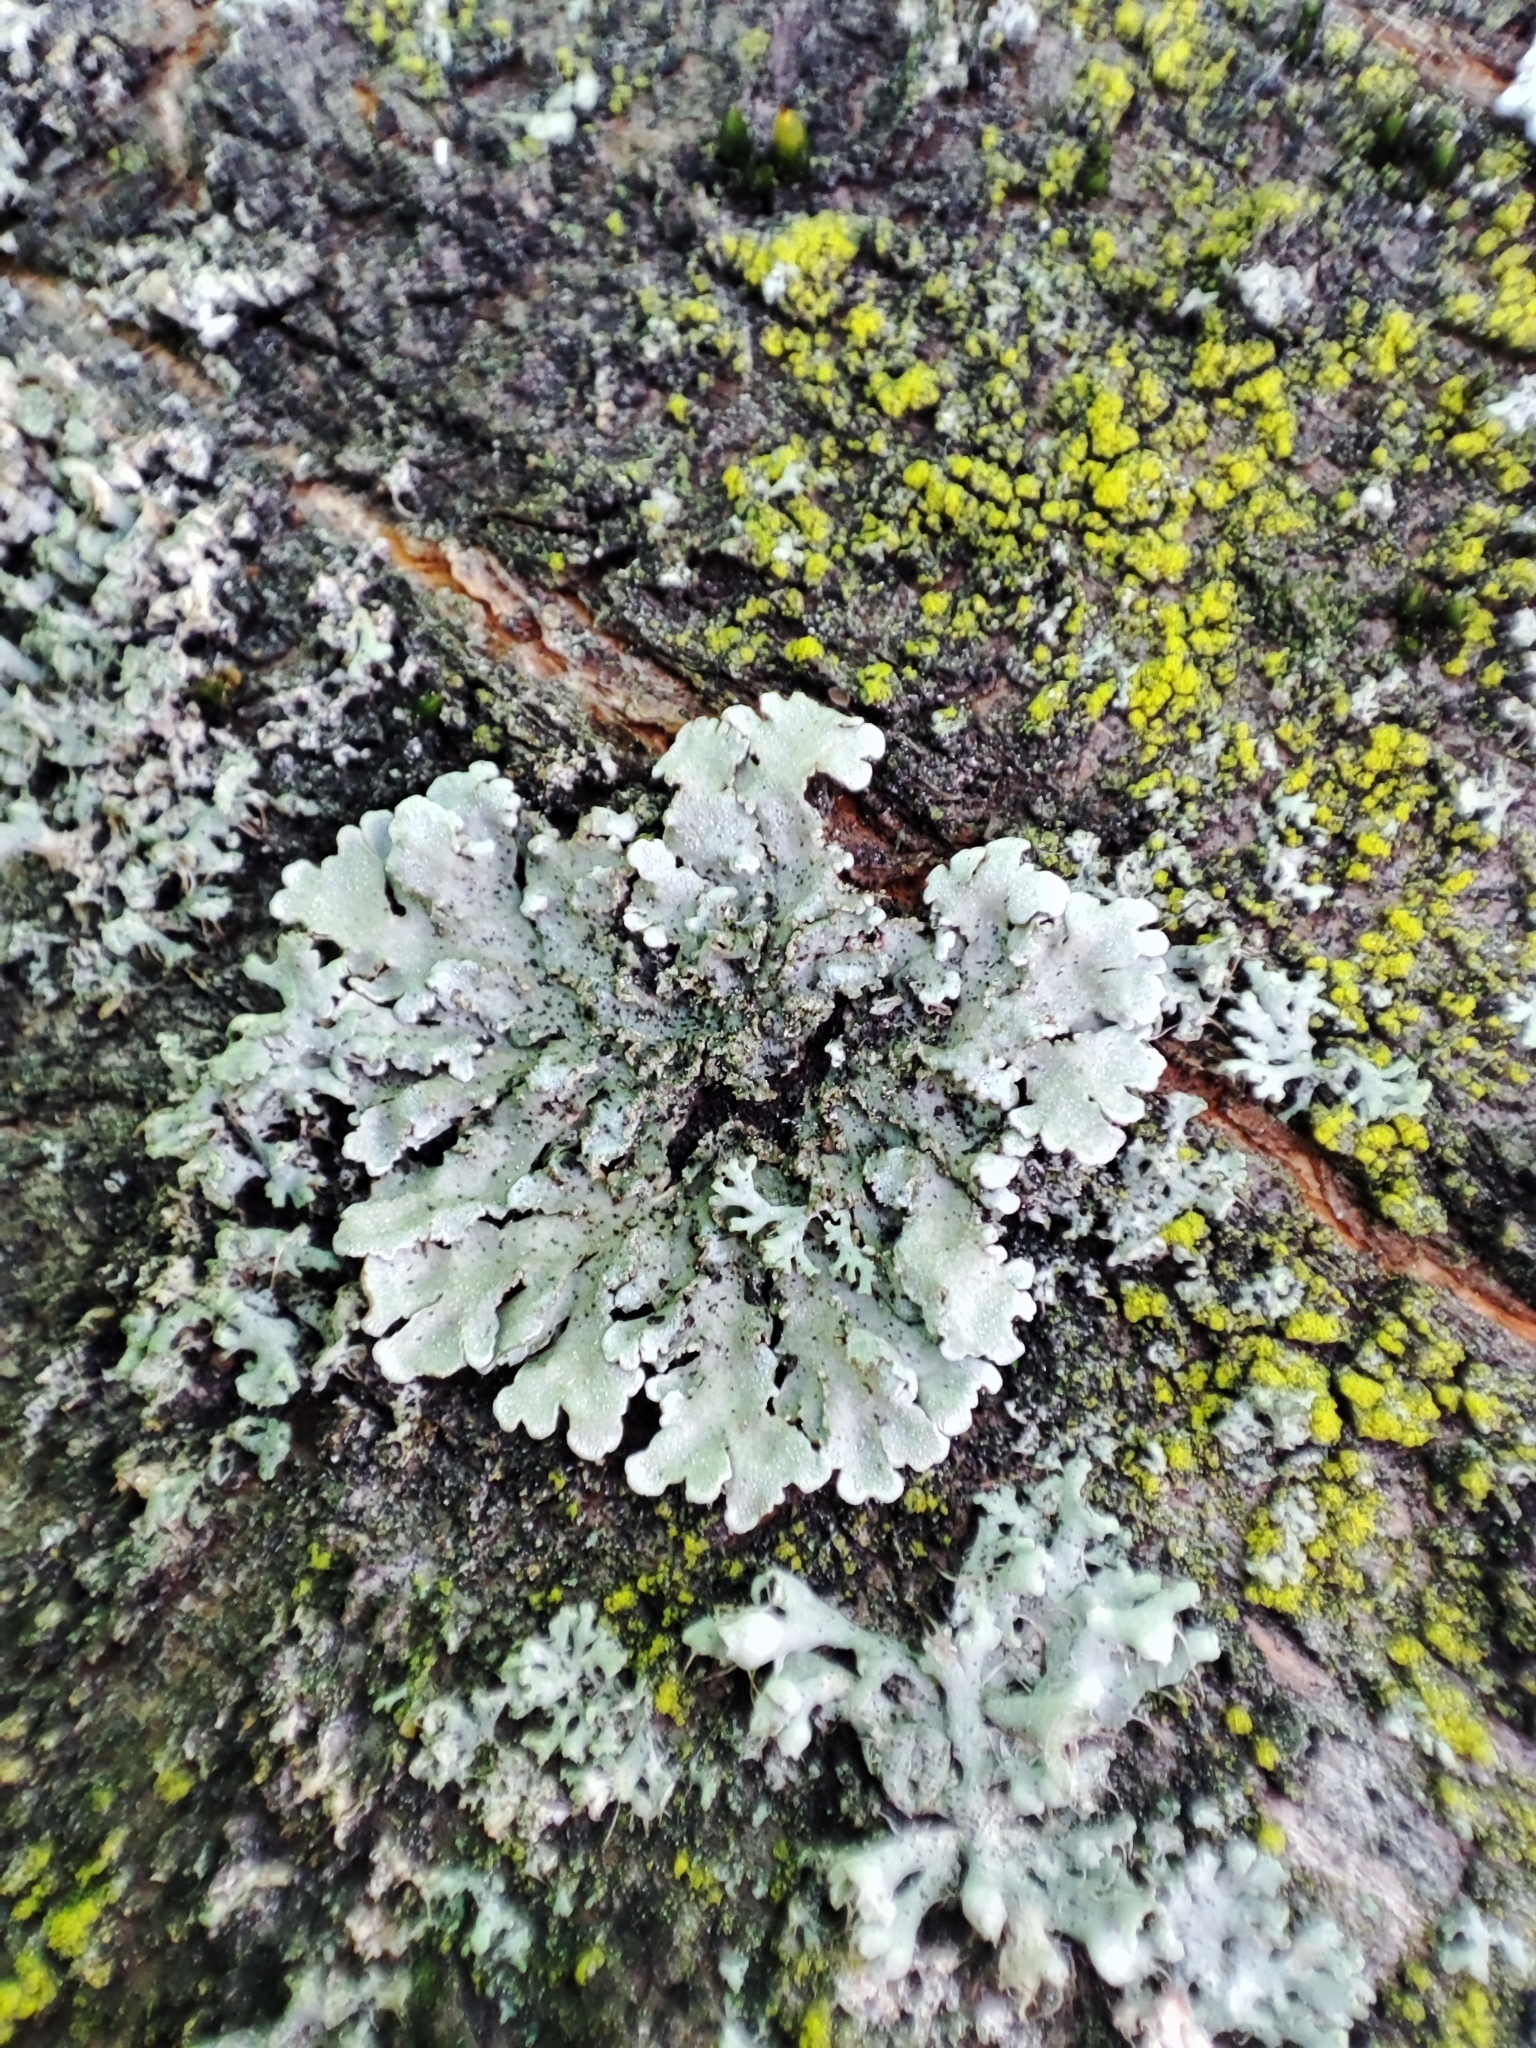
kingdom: Fungi
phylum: Ascomycota
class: Lecanoromycetes
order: Caliciales
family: Physciaceae
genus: Physconia
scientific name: Physconia enteroxantha
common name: Yellow-edged frost lichen
